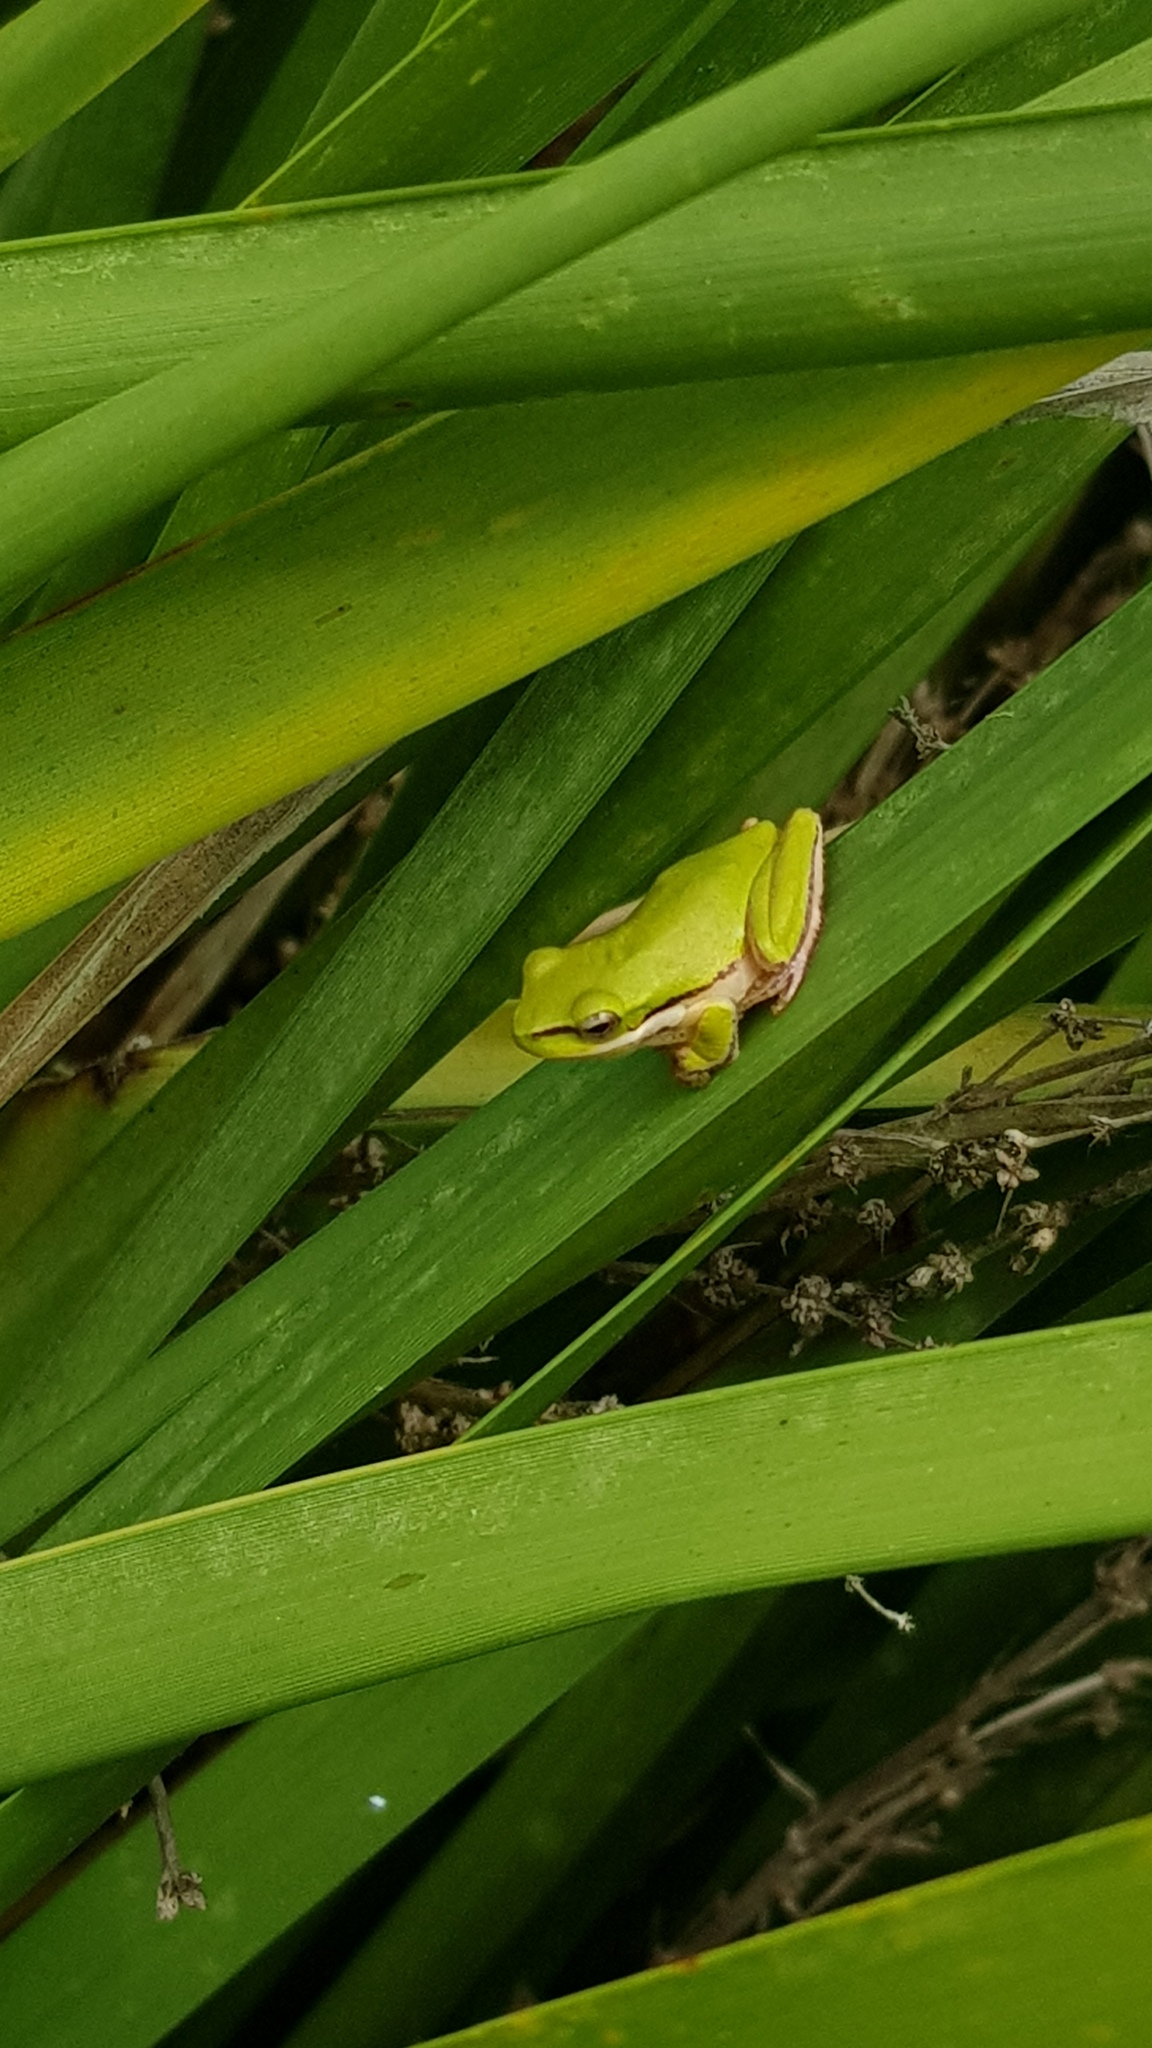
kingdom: Animalia
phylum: Chordata
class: Amphibia
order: Anura
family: Pelodryadidae
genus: Litoria
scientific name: Litoria fallax
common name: Eastern dwarf treefrog
